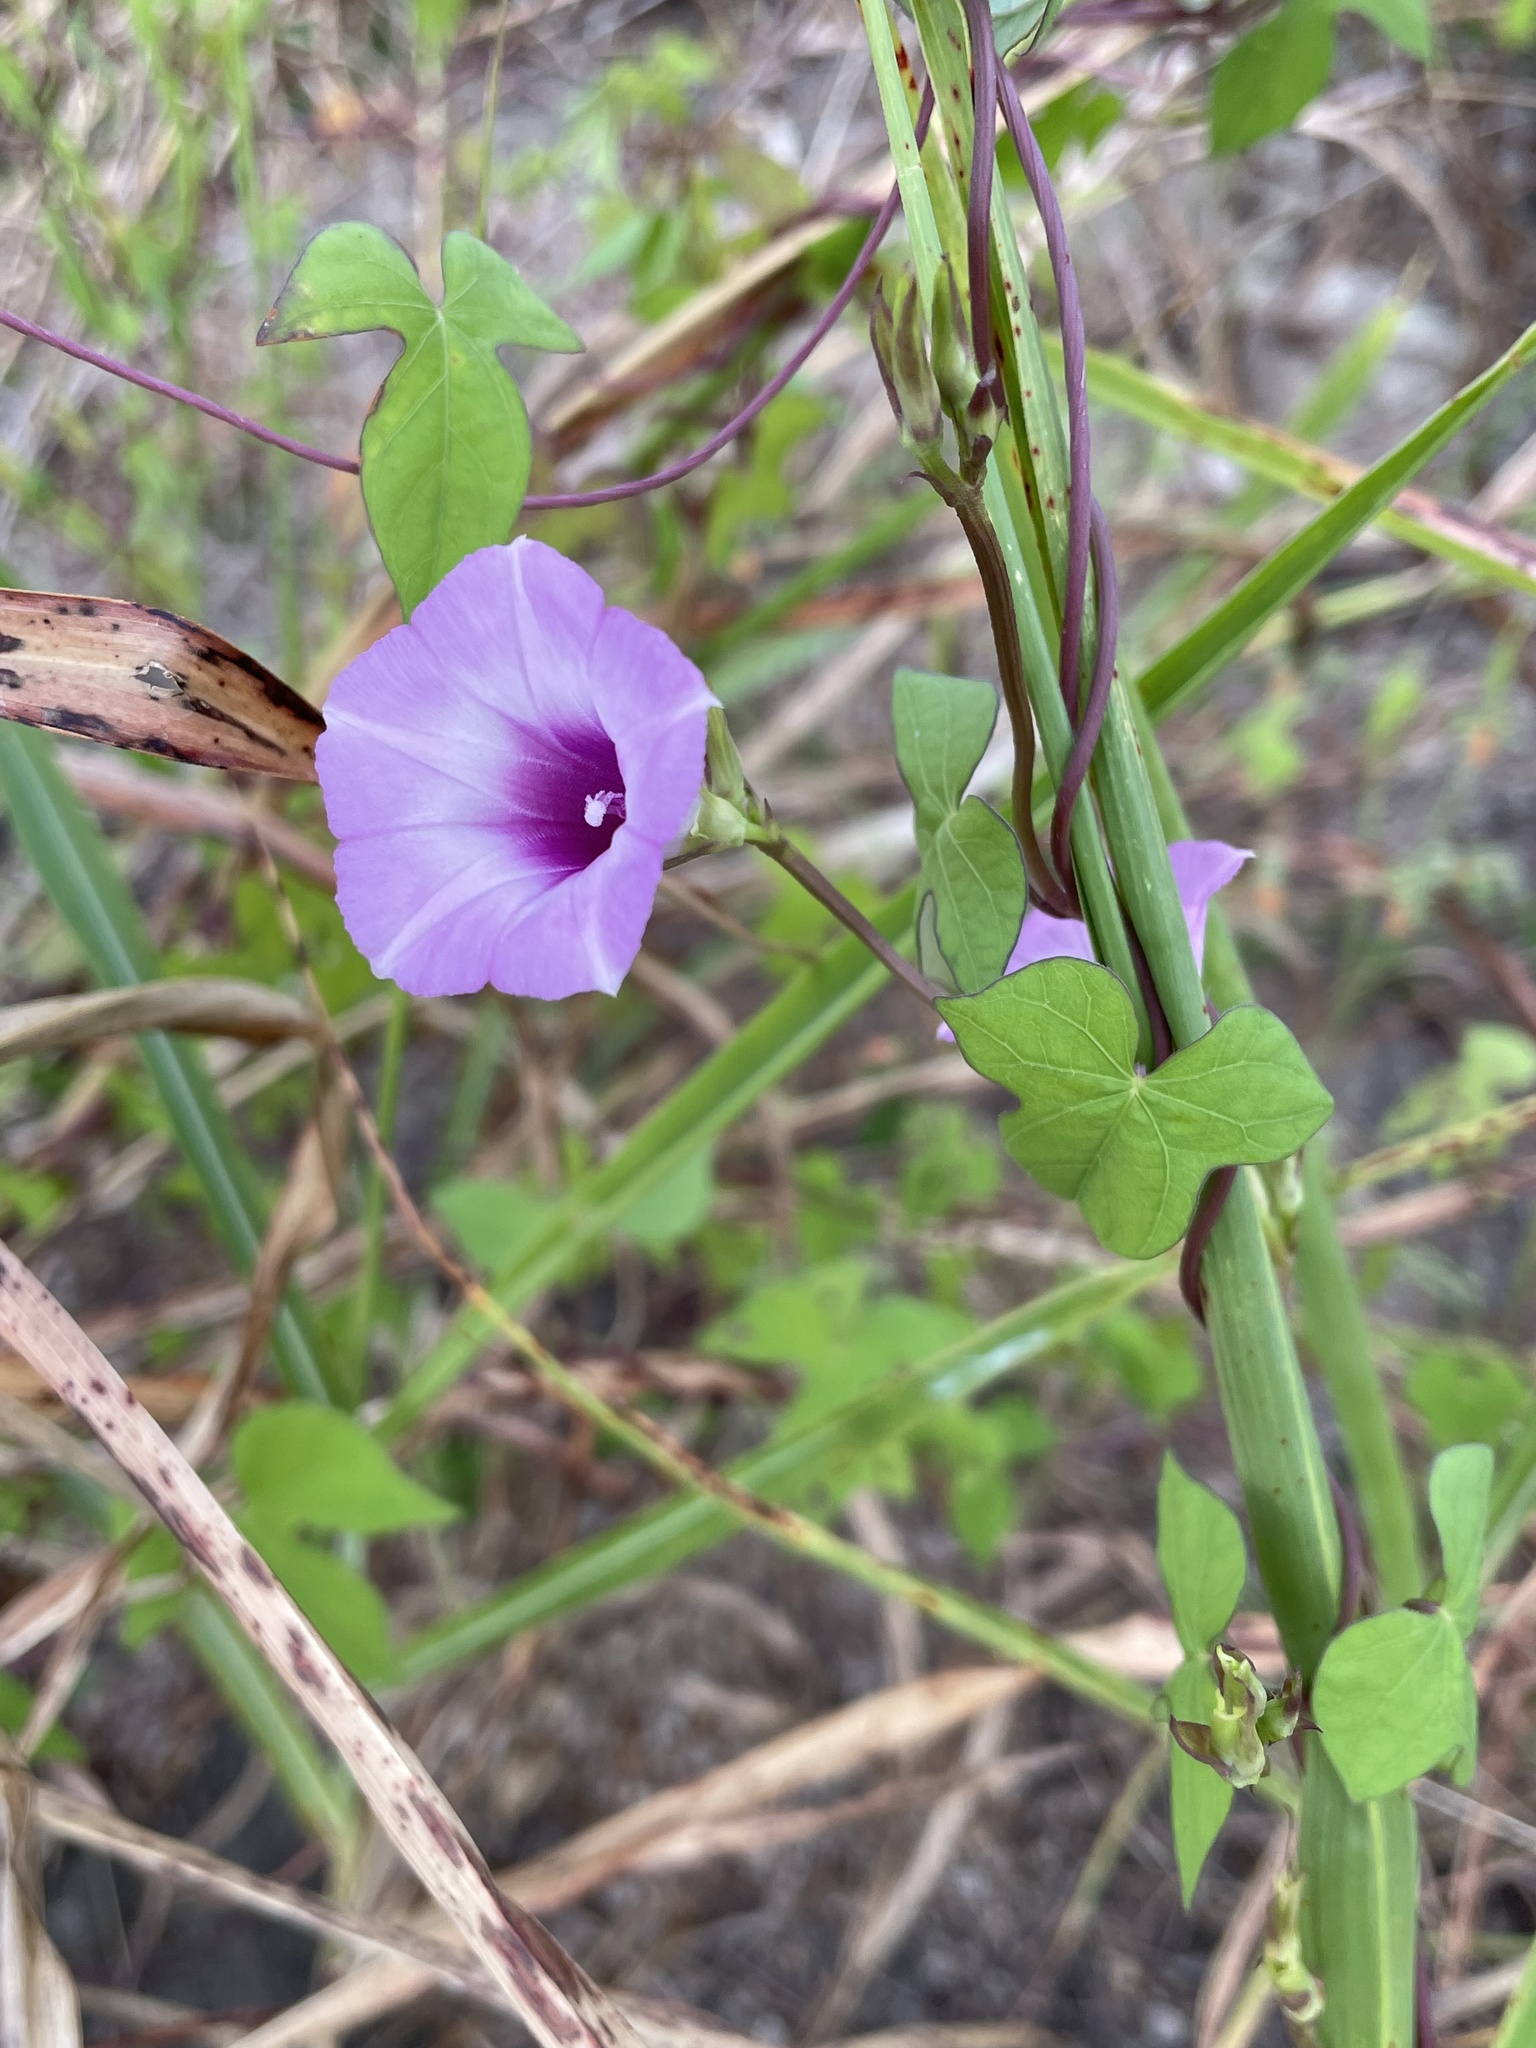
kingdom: Plantae
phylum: Tracheophyta
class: Magnoliopsida
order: Solanales
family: Convolvulaceae
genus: Ipomoea
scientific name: Ipomoea cordatotriloba
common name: Cotton morning glory
